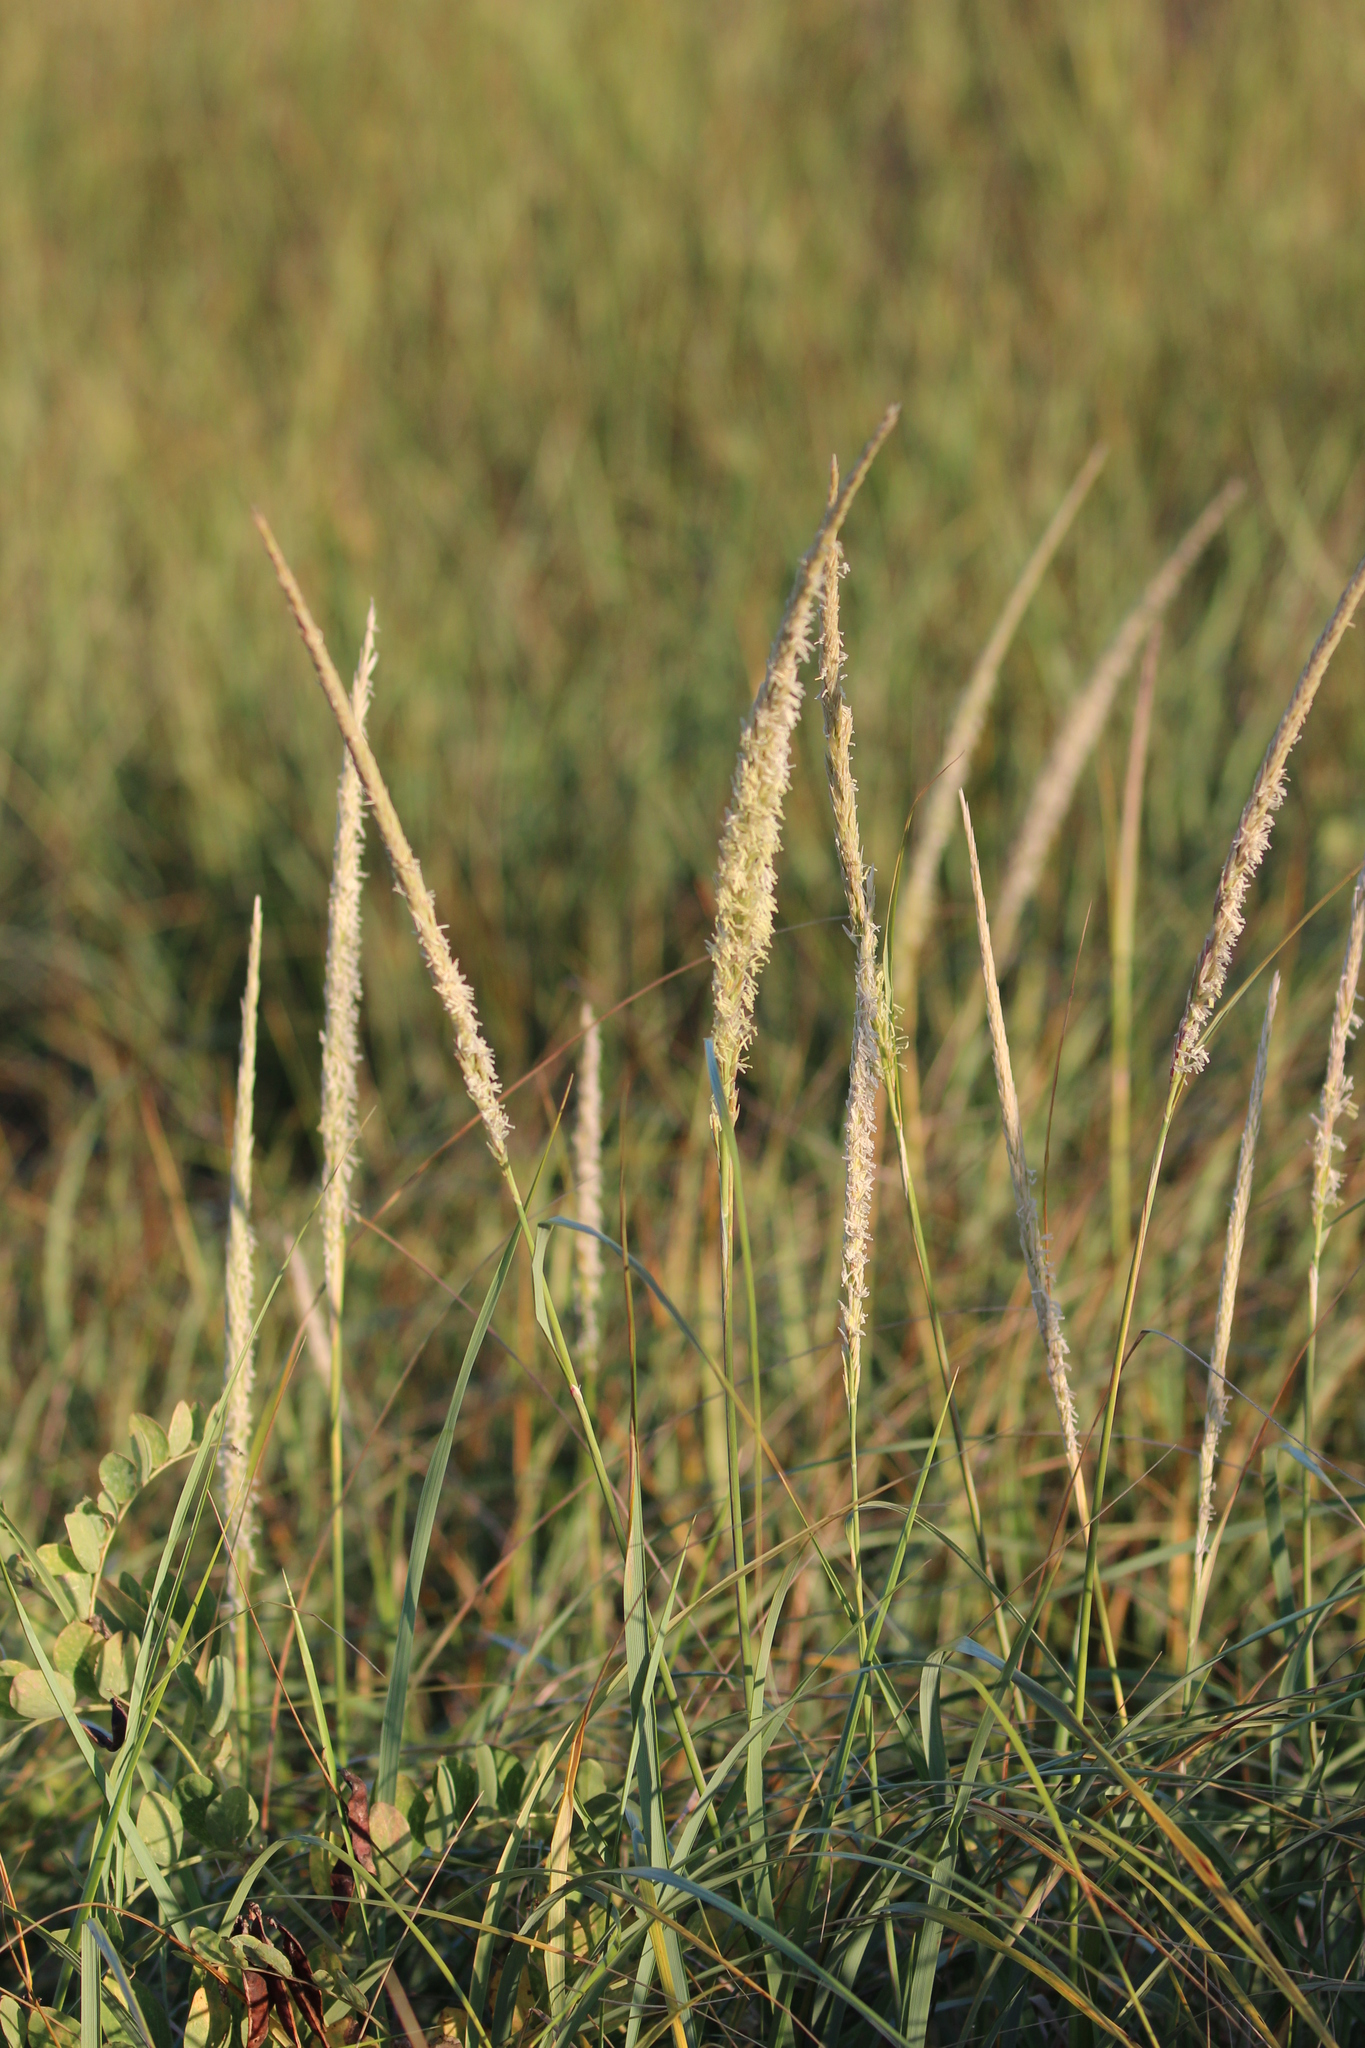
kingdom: Plantae
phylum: Tracheophyta
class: Liliopsida
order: Poales
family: Poaceae
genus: Calamagrostis
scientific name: Calamagrostis breviligulata
